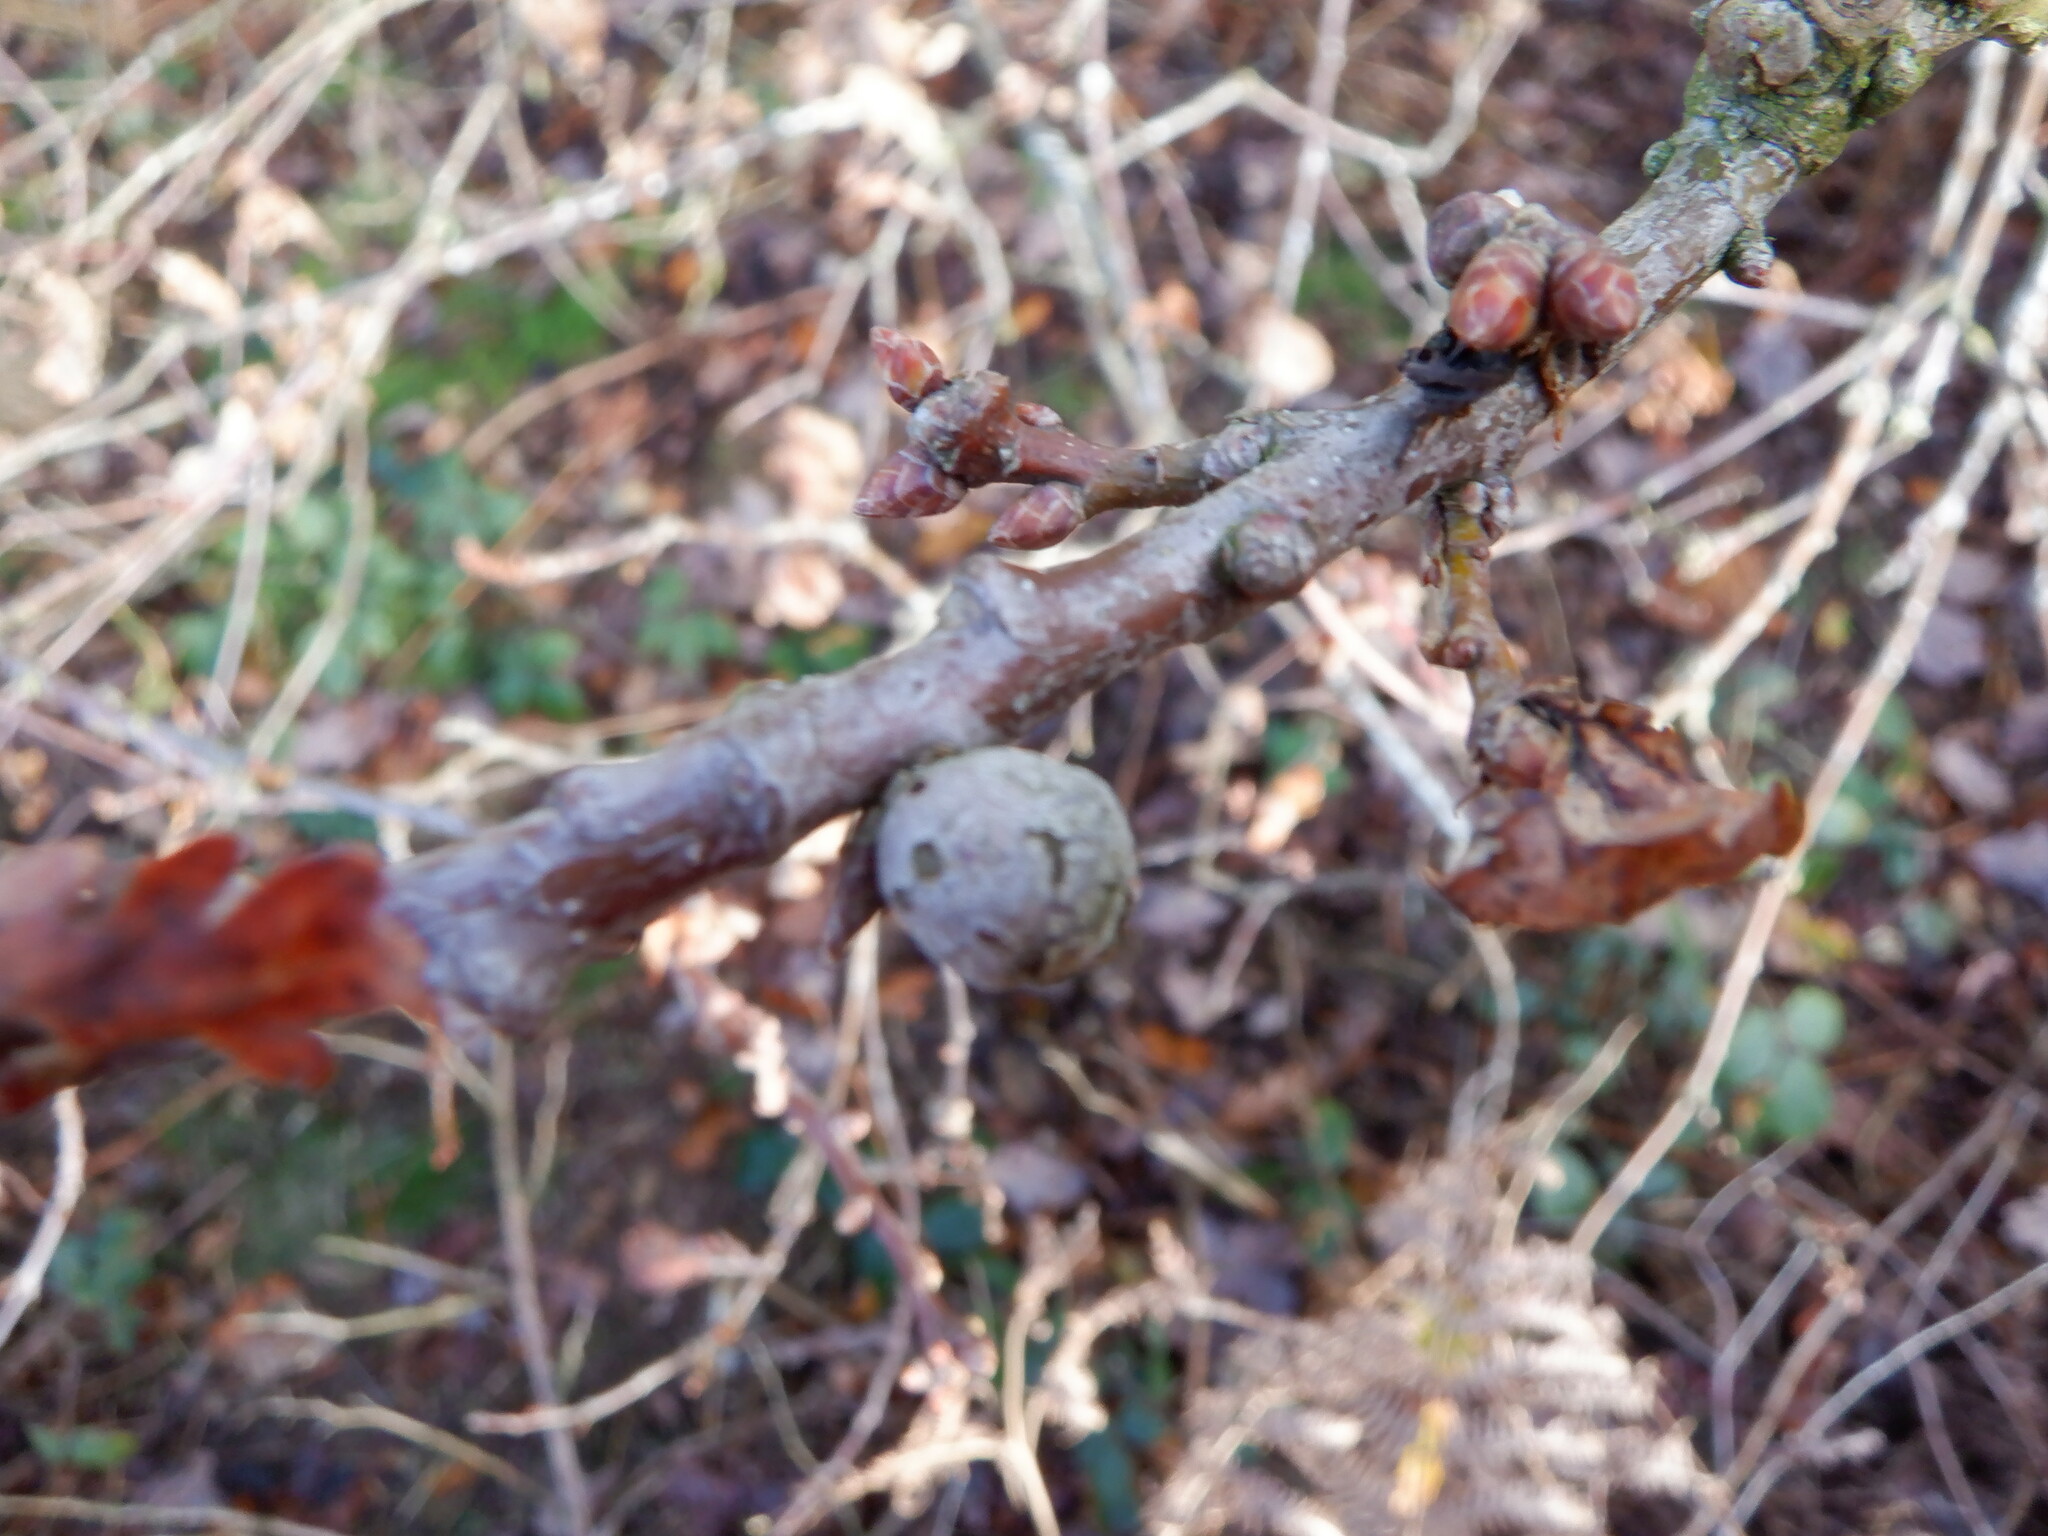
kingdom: Animalia
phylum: Arthropoda
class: Insecta
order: Hymenoptera
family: Cynipidae
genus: Andricus
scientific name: Andricus lignicolus
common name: Cola-nut gall
